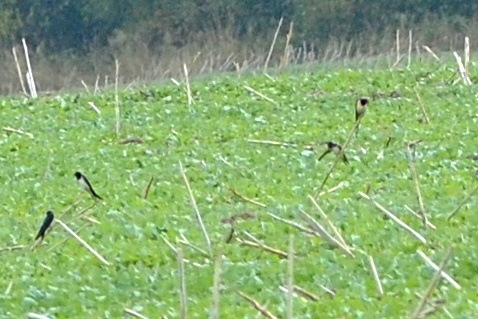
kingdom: Animalia
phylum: Chordata
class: Aves
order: Passeriformes
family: Hirundinidae
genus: Hirundo
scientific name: Hirundo rustica
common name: Barn swallow
